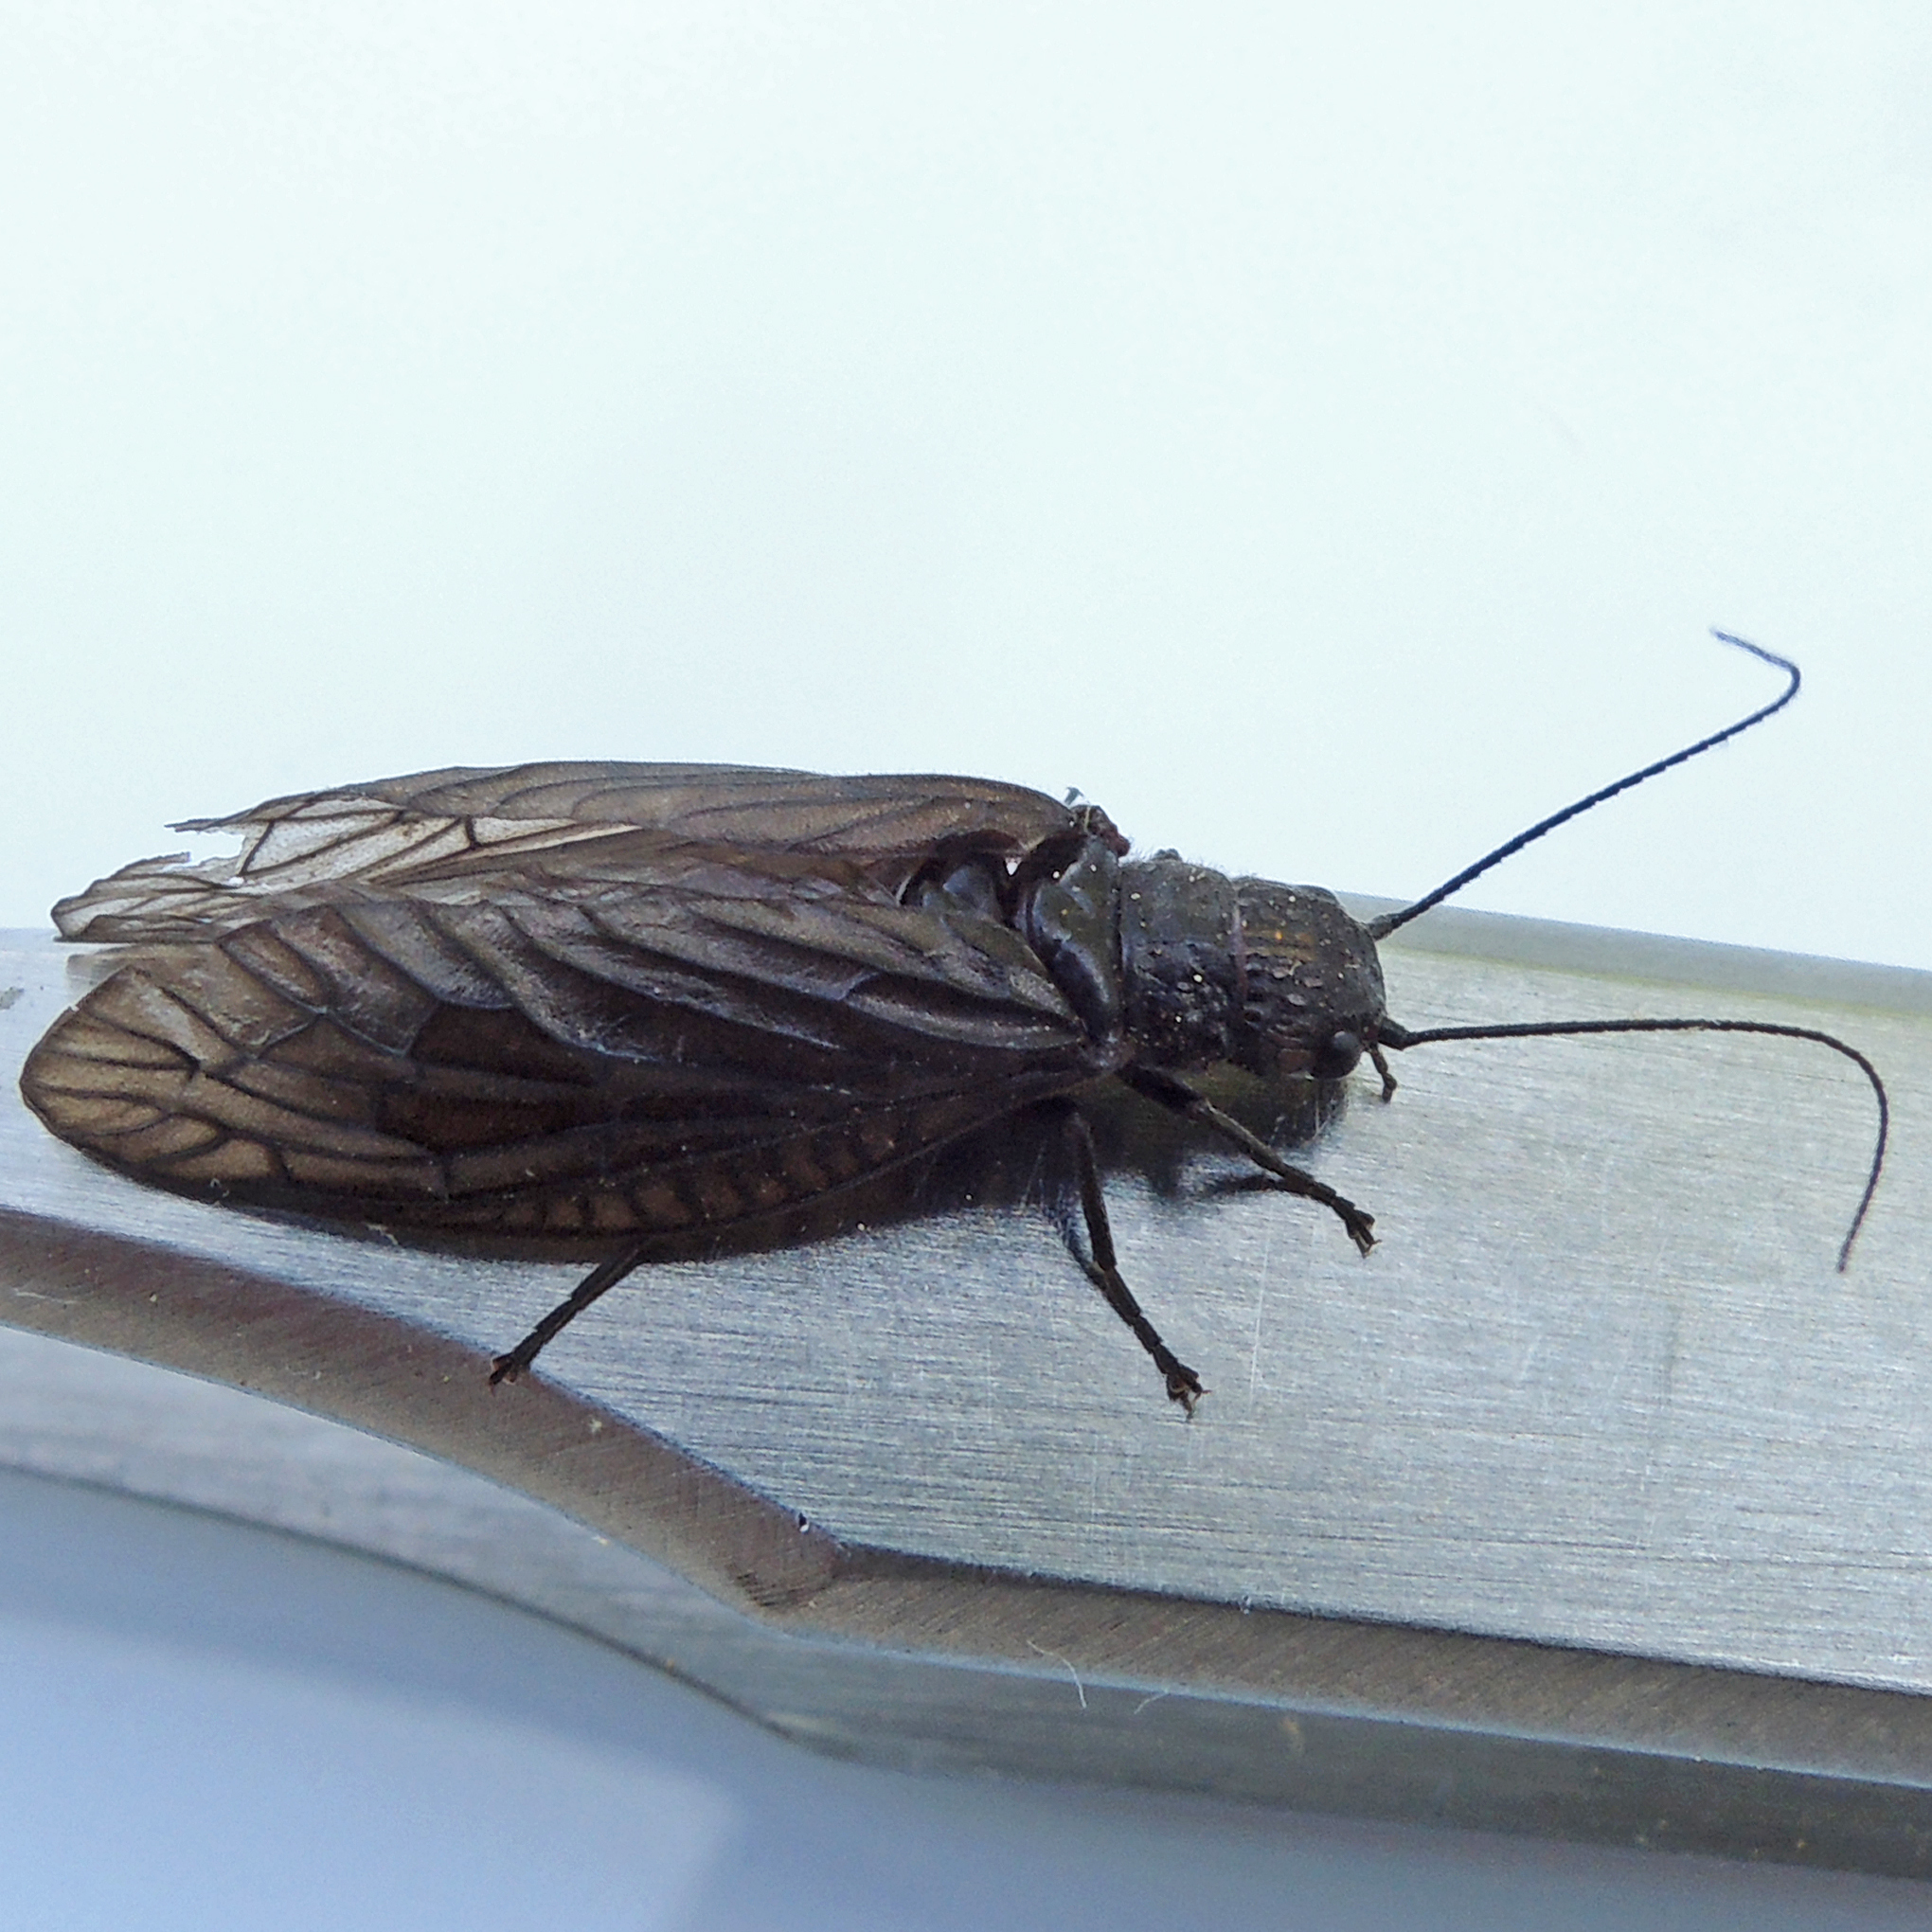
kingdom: Animalia
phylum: Arthropoda
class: Insecta
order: Megaloptera
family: Sialidae
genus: Sialis
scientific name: Sialis
